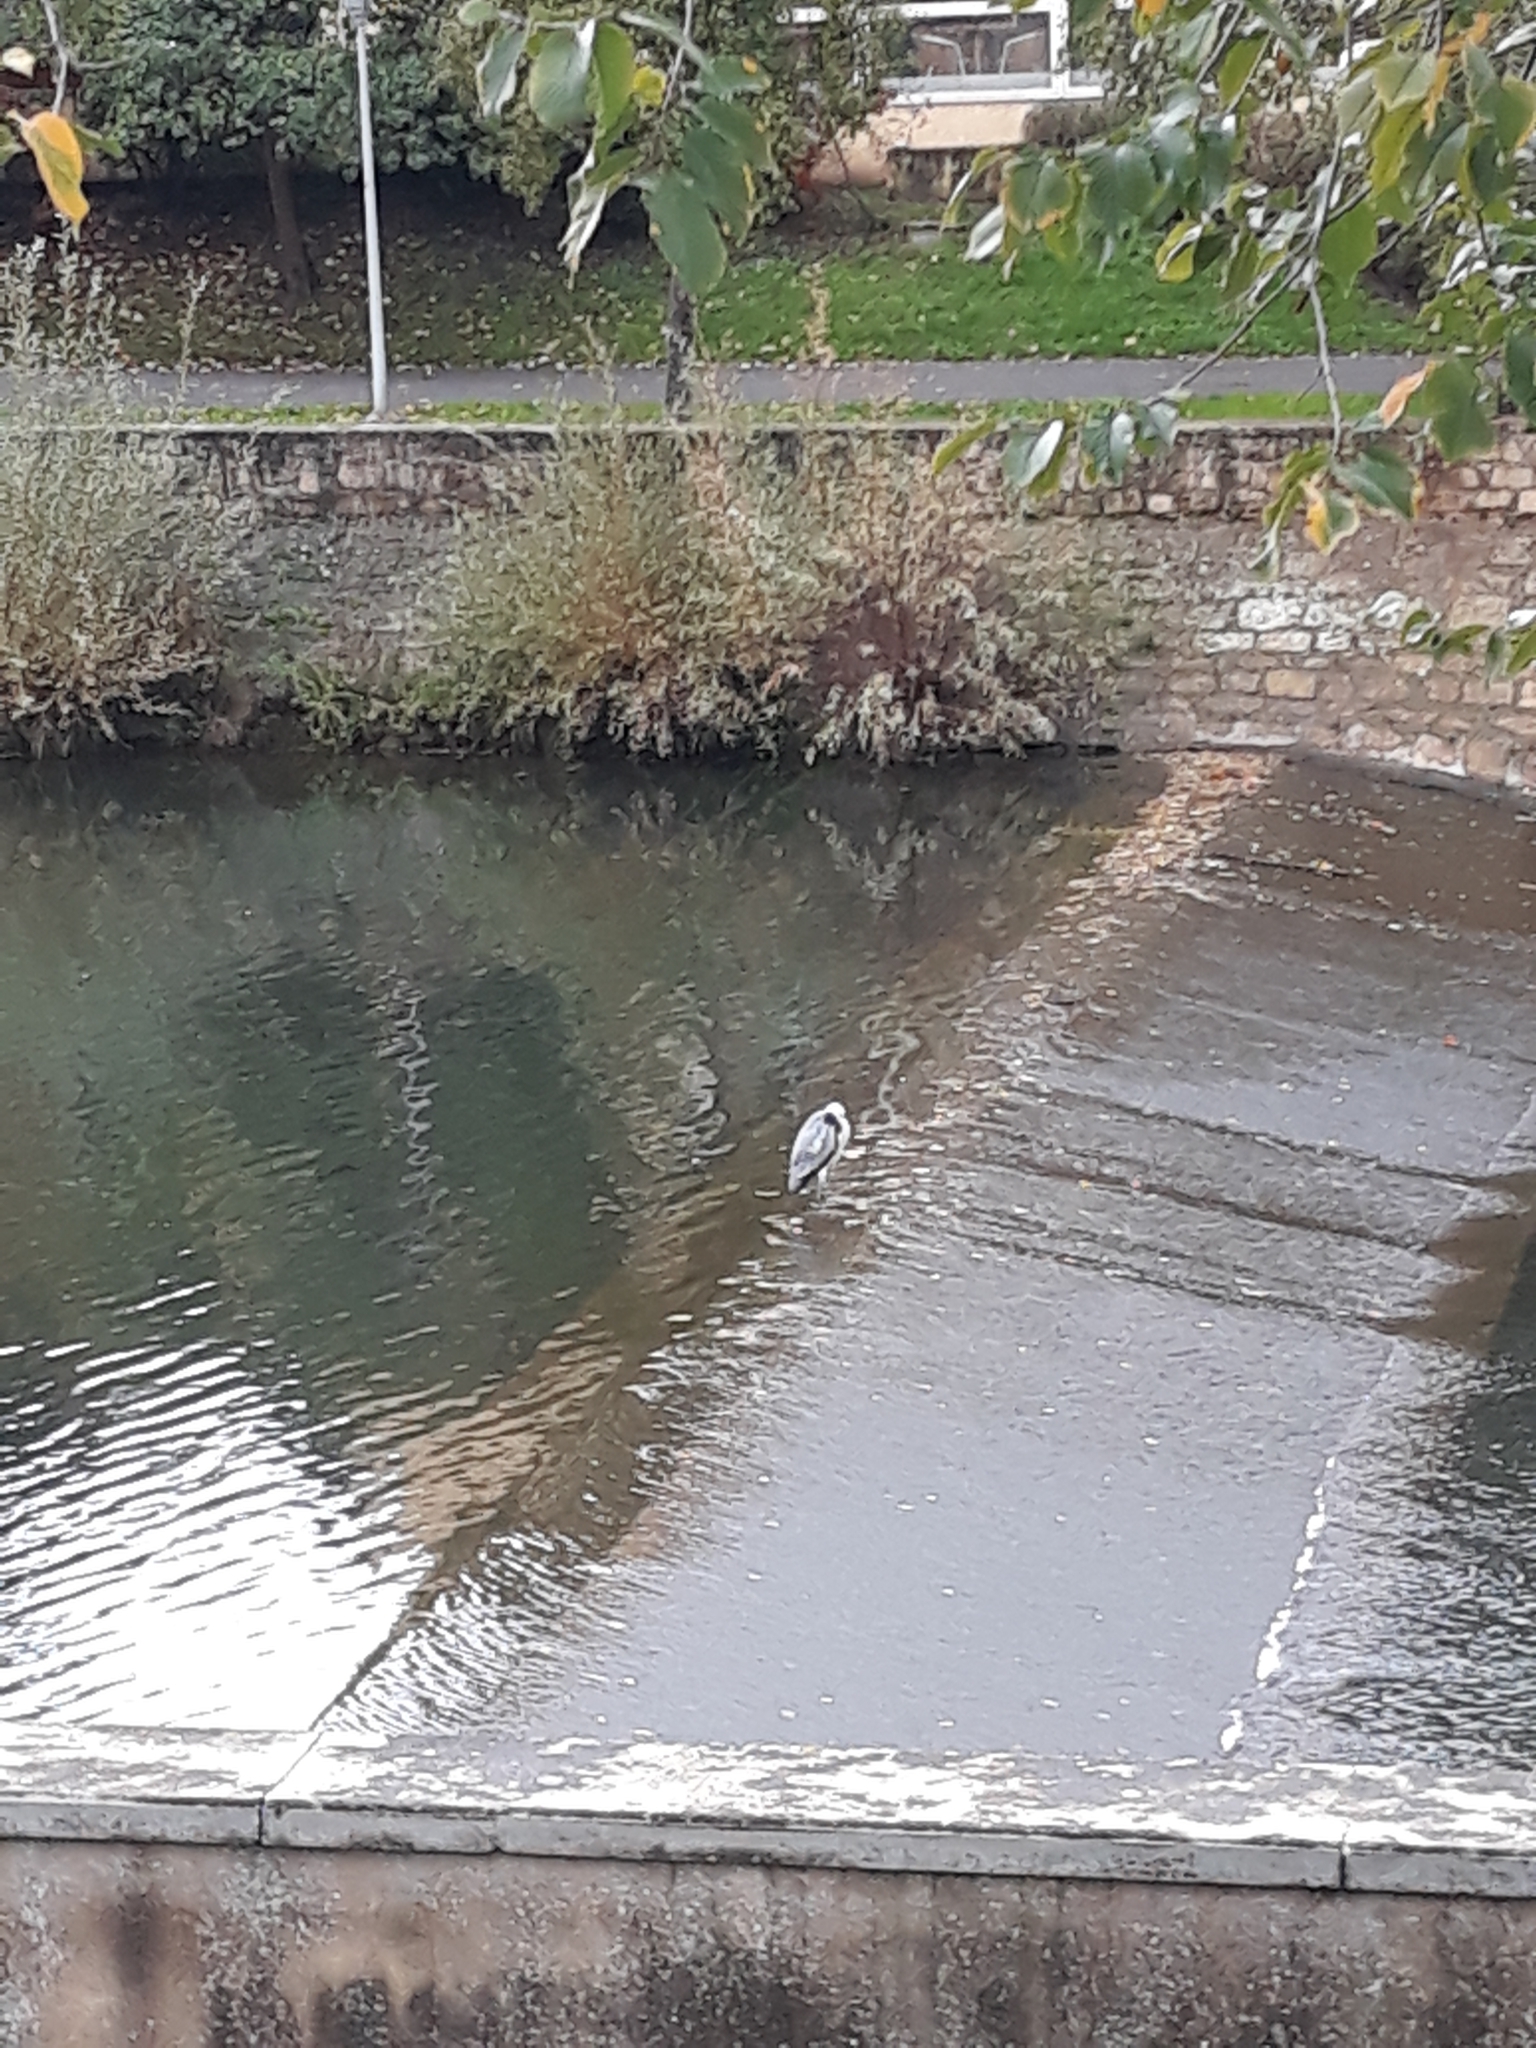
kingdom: Animalia
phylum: Chordata
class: Aves
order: Pelecaniformes
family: Ardeidae
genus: Ardea
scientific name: Ardea cinerea
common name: Grey heron
